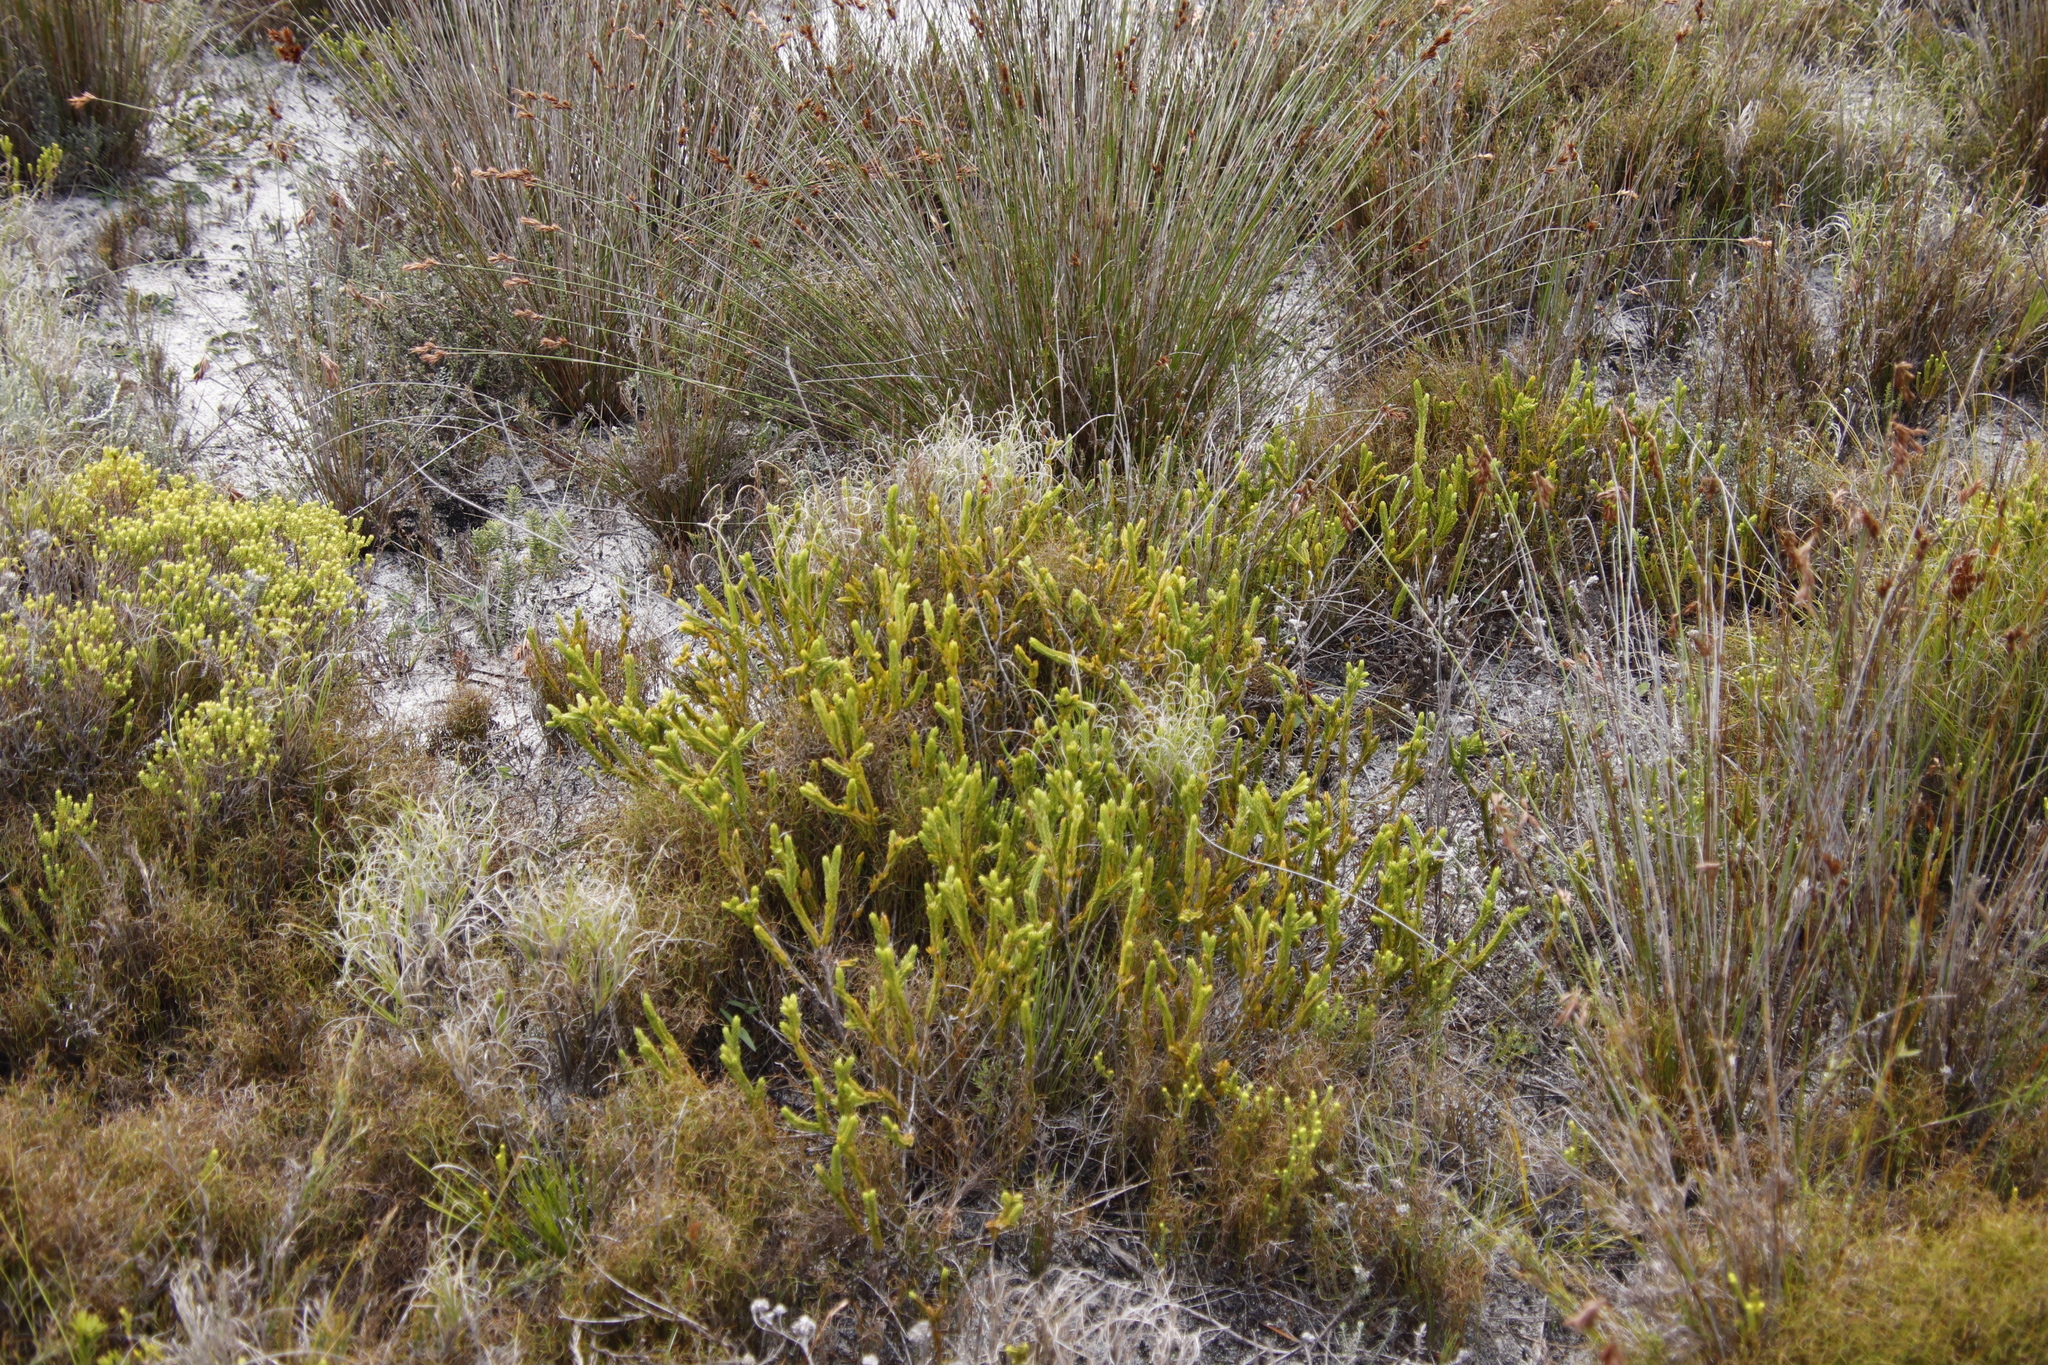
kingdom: Plantae
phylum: Tracheophyta
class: Magnoliopsida
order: Malvales
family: Thymelaeaceae
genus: Lachnaea
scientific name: Lachnaea grandiflora
